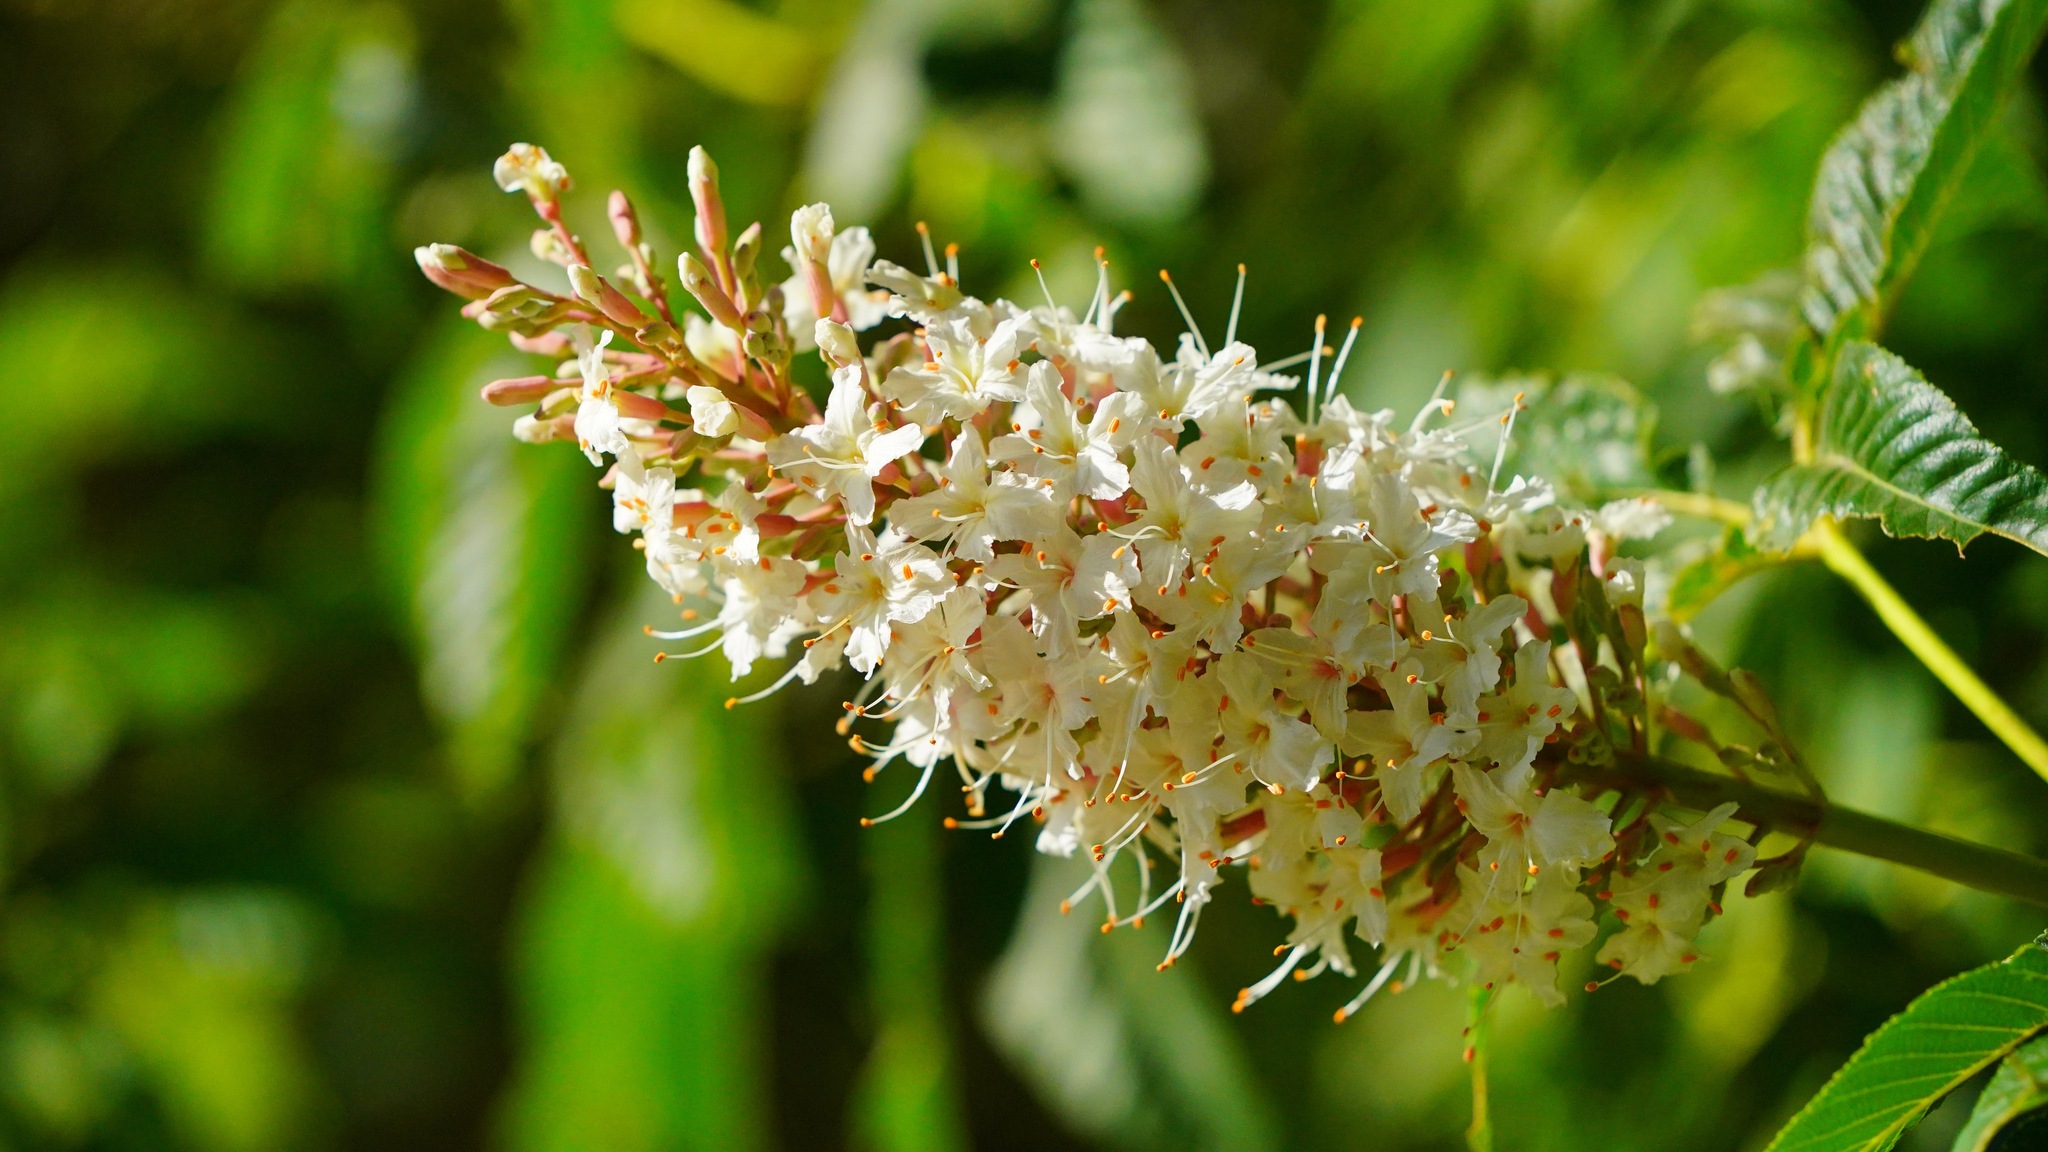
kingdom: Plantae
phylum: Tracheophyta
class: Magnoliopsida
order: Sapindales
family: Sapindaceae
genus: Aesculus
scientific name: Aesculus californica
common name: California buckeye
